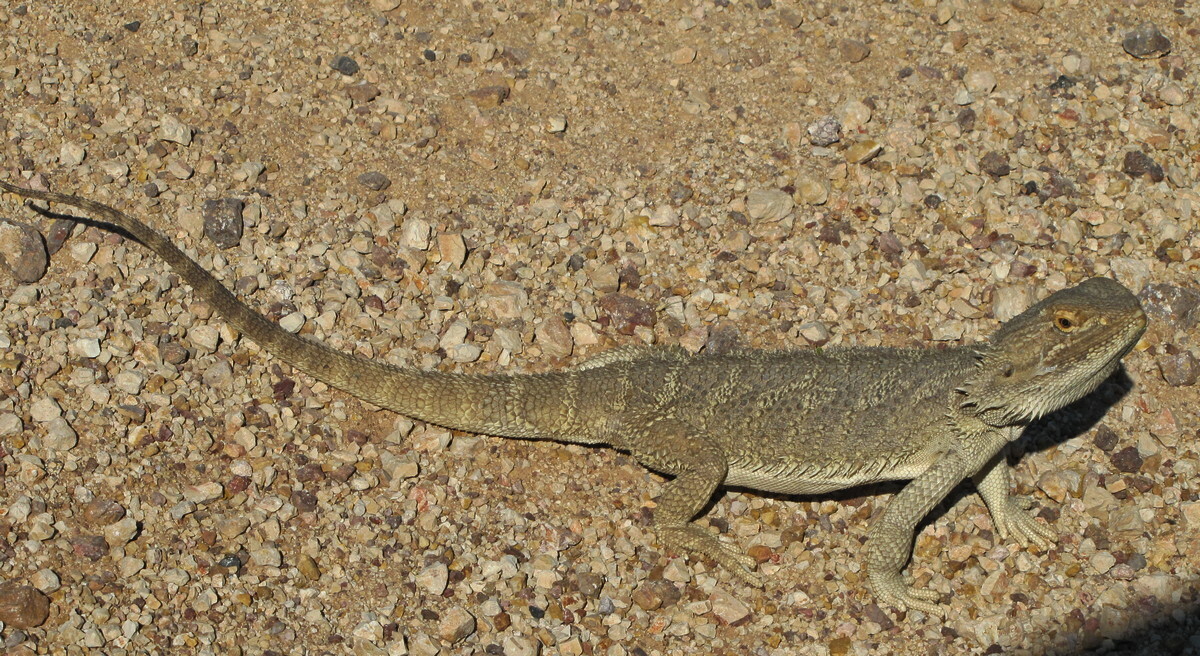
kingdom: Animalia
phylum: Chordata
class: Squamata
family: Agamidae
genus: Pogona
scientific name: Pogona vitticeps
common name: Central bearded dragon
